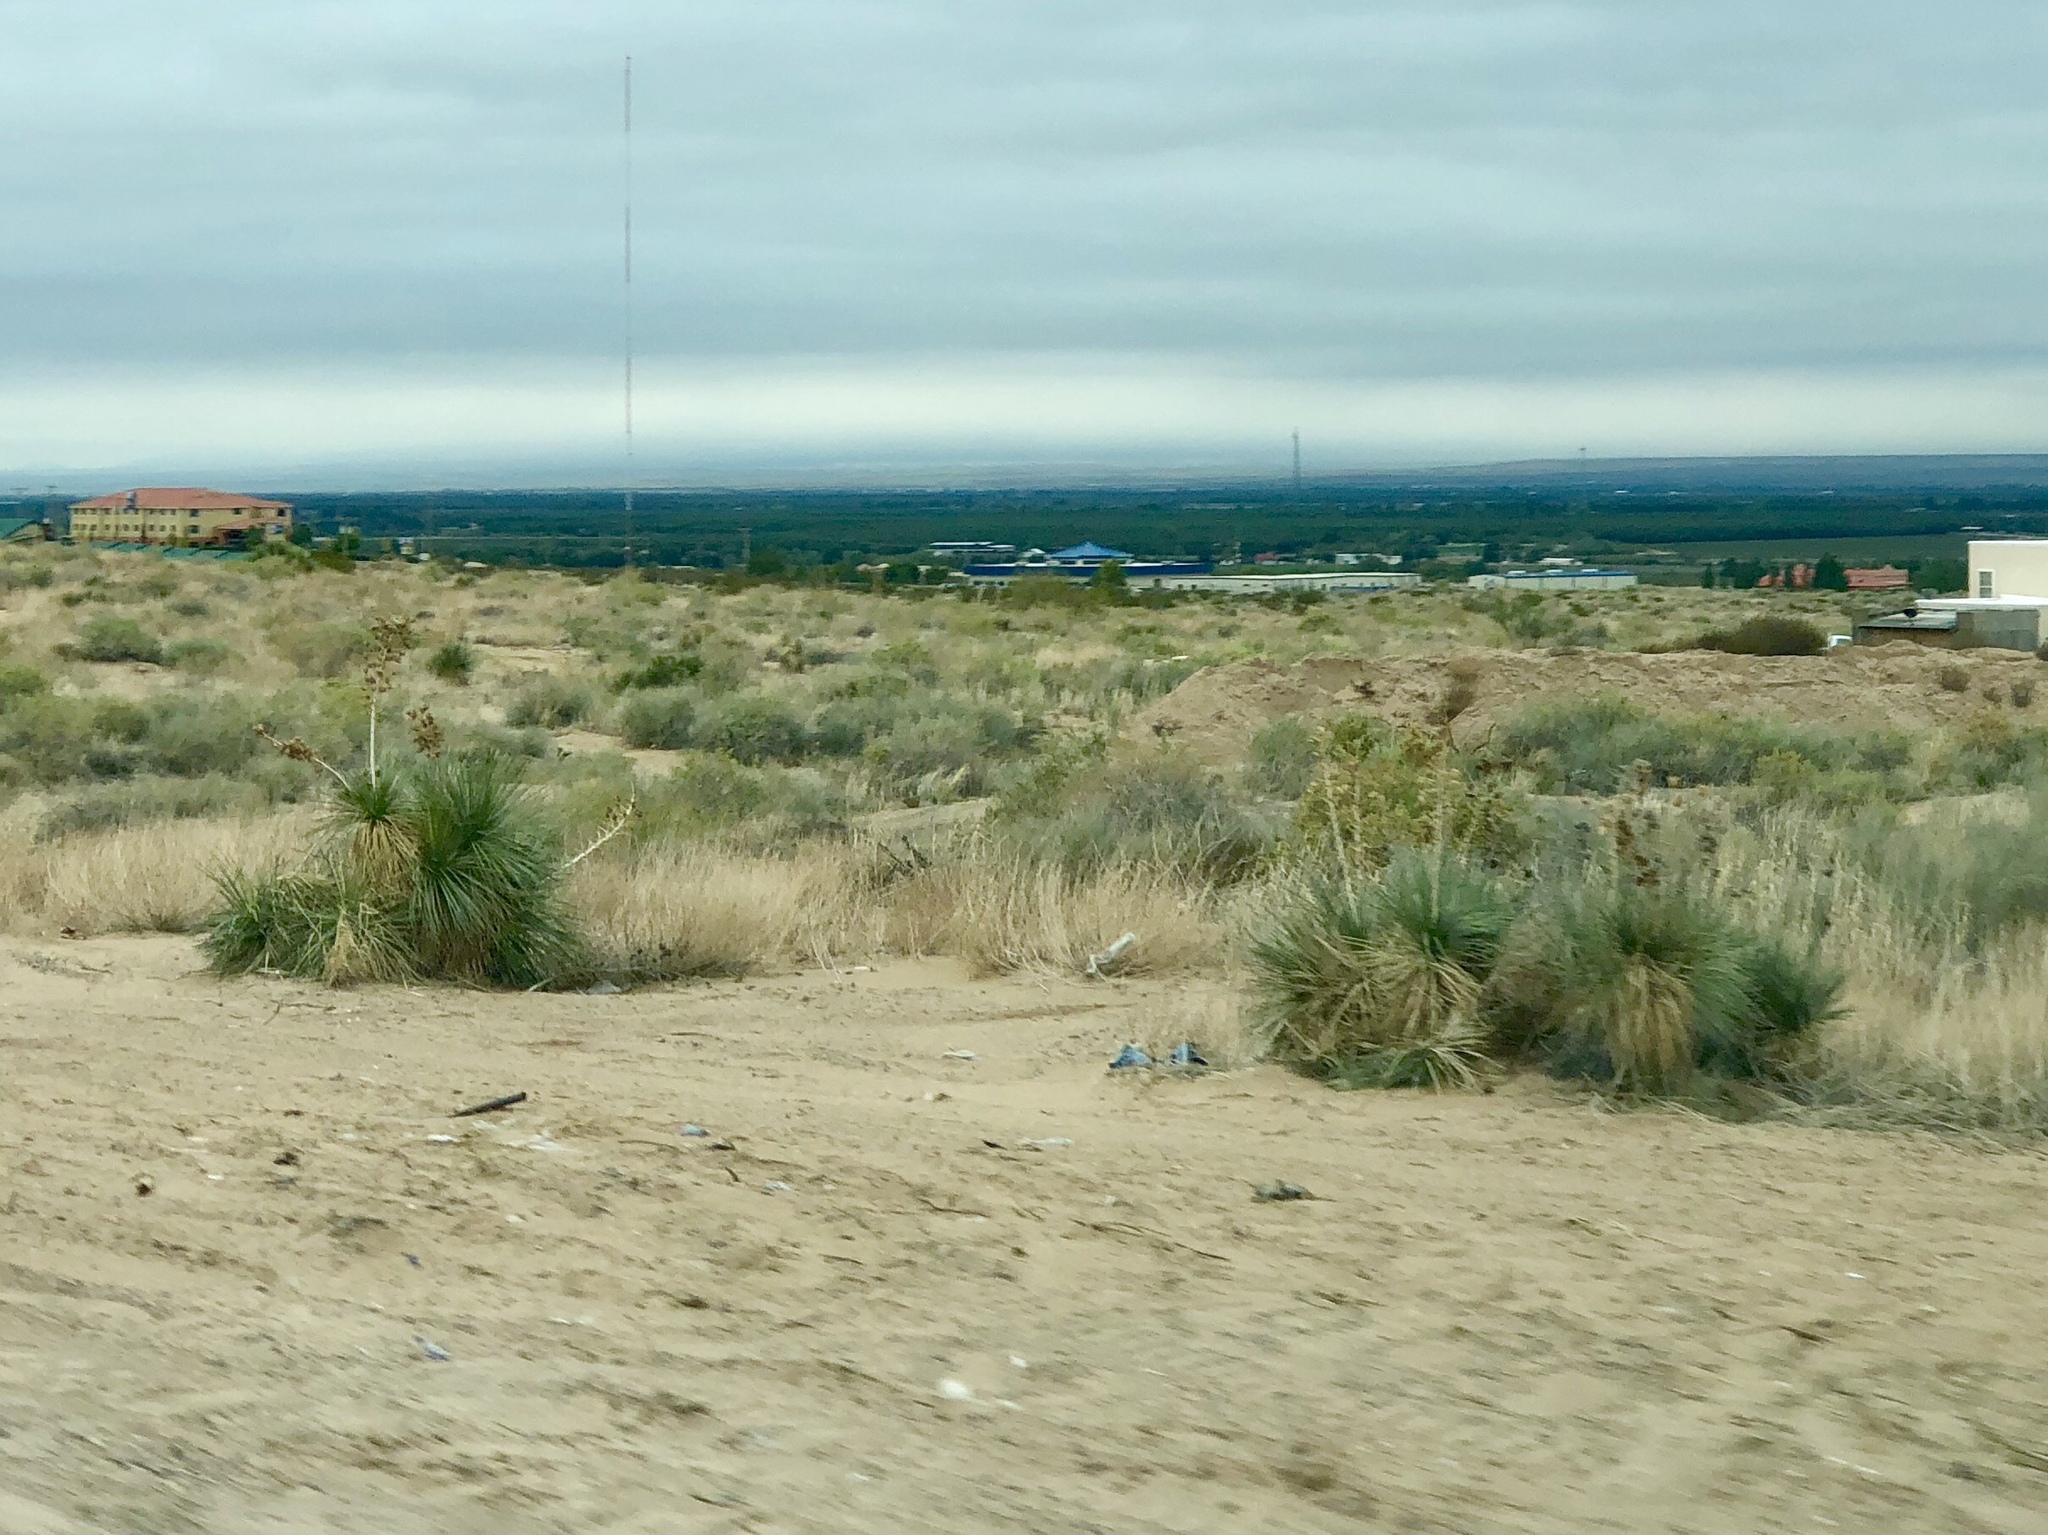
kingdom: Plantae
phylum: Tracheophyta
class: Liliopsida
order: Asparagales
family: Asparagaceae
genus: Yucca
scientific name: Yucca elata
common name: Palmella
